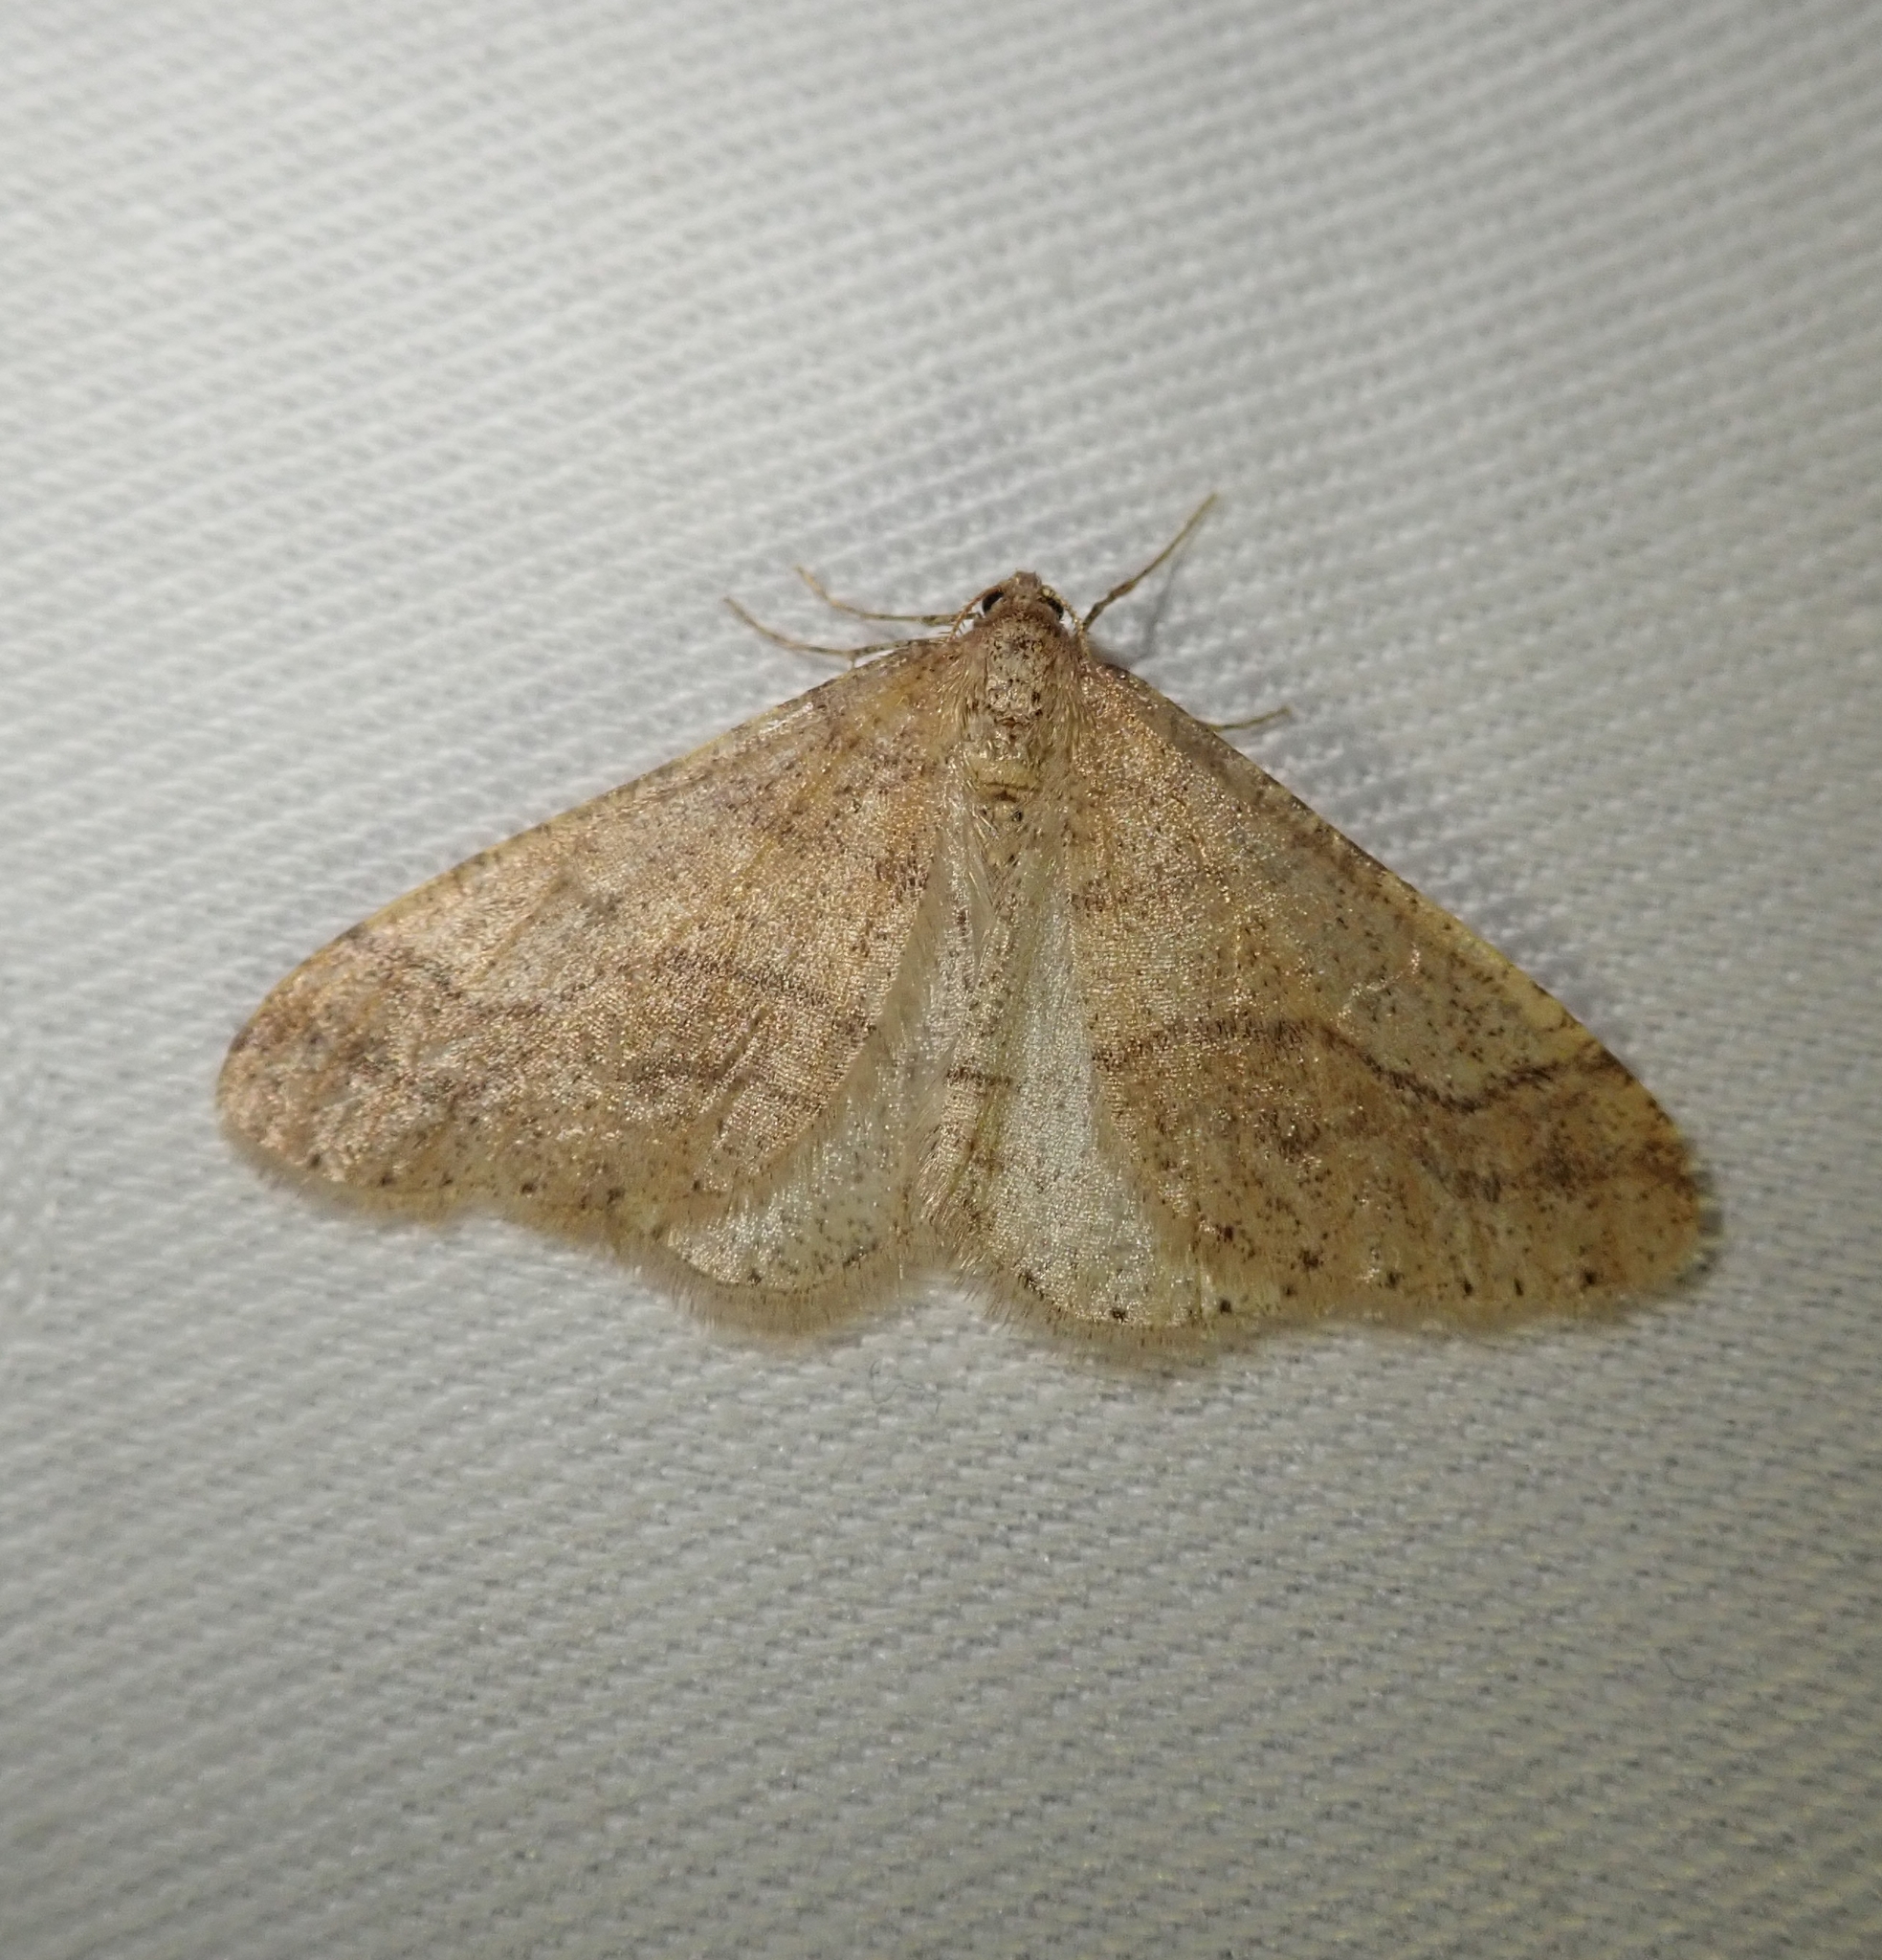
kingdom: Animalia
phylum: Arthropoda
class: Insecta
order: Lepidoptera
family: Geometridae
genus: Agriopis
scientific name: Agriopis marginaria
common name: Dotted border
